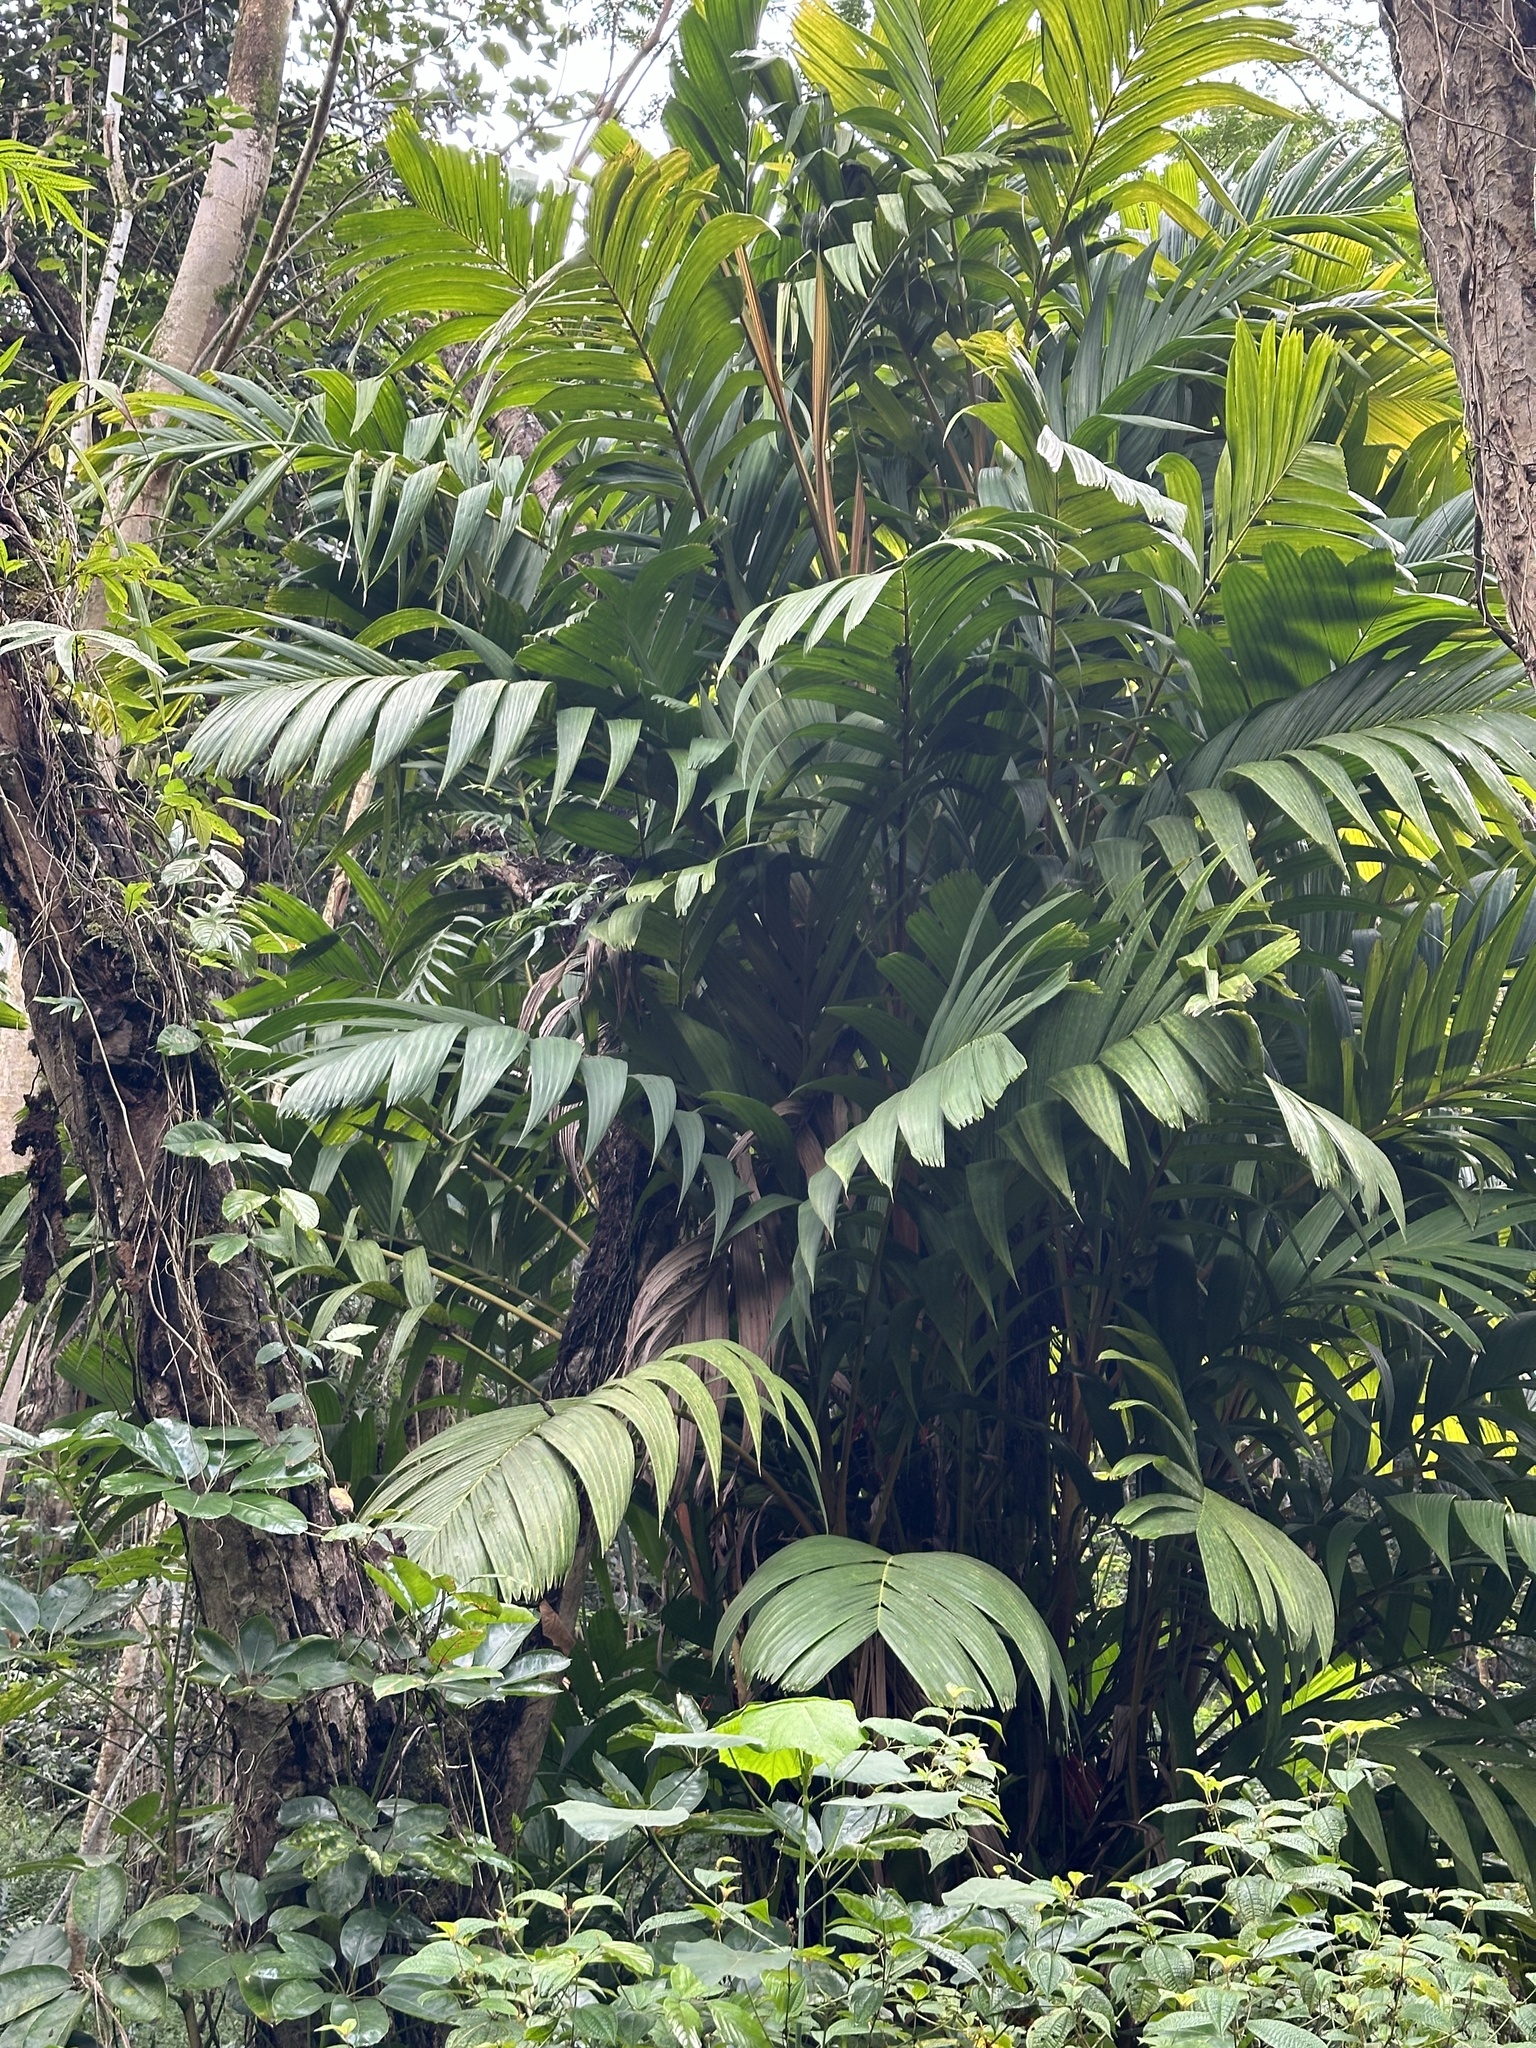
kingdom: Plantae
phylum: Tracheophyta
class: Liliopsida
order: Arecales
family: Arecaceae
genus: Pinanga
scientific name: Pinanga coronata
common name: Ivory cane palm
